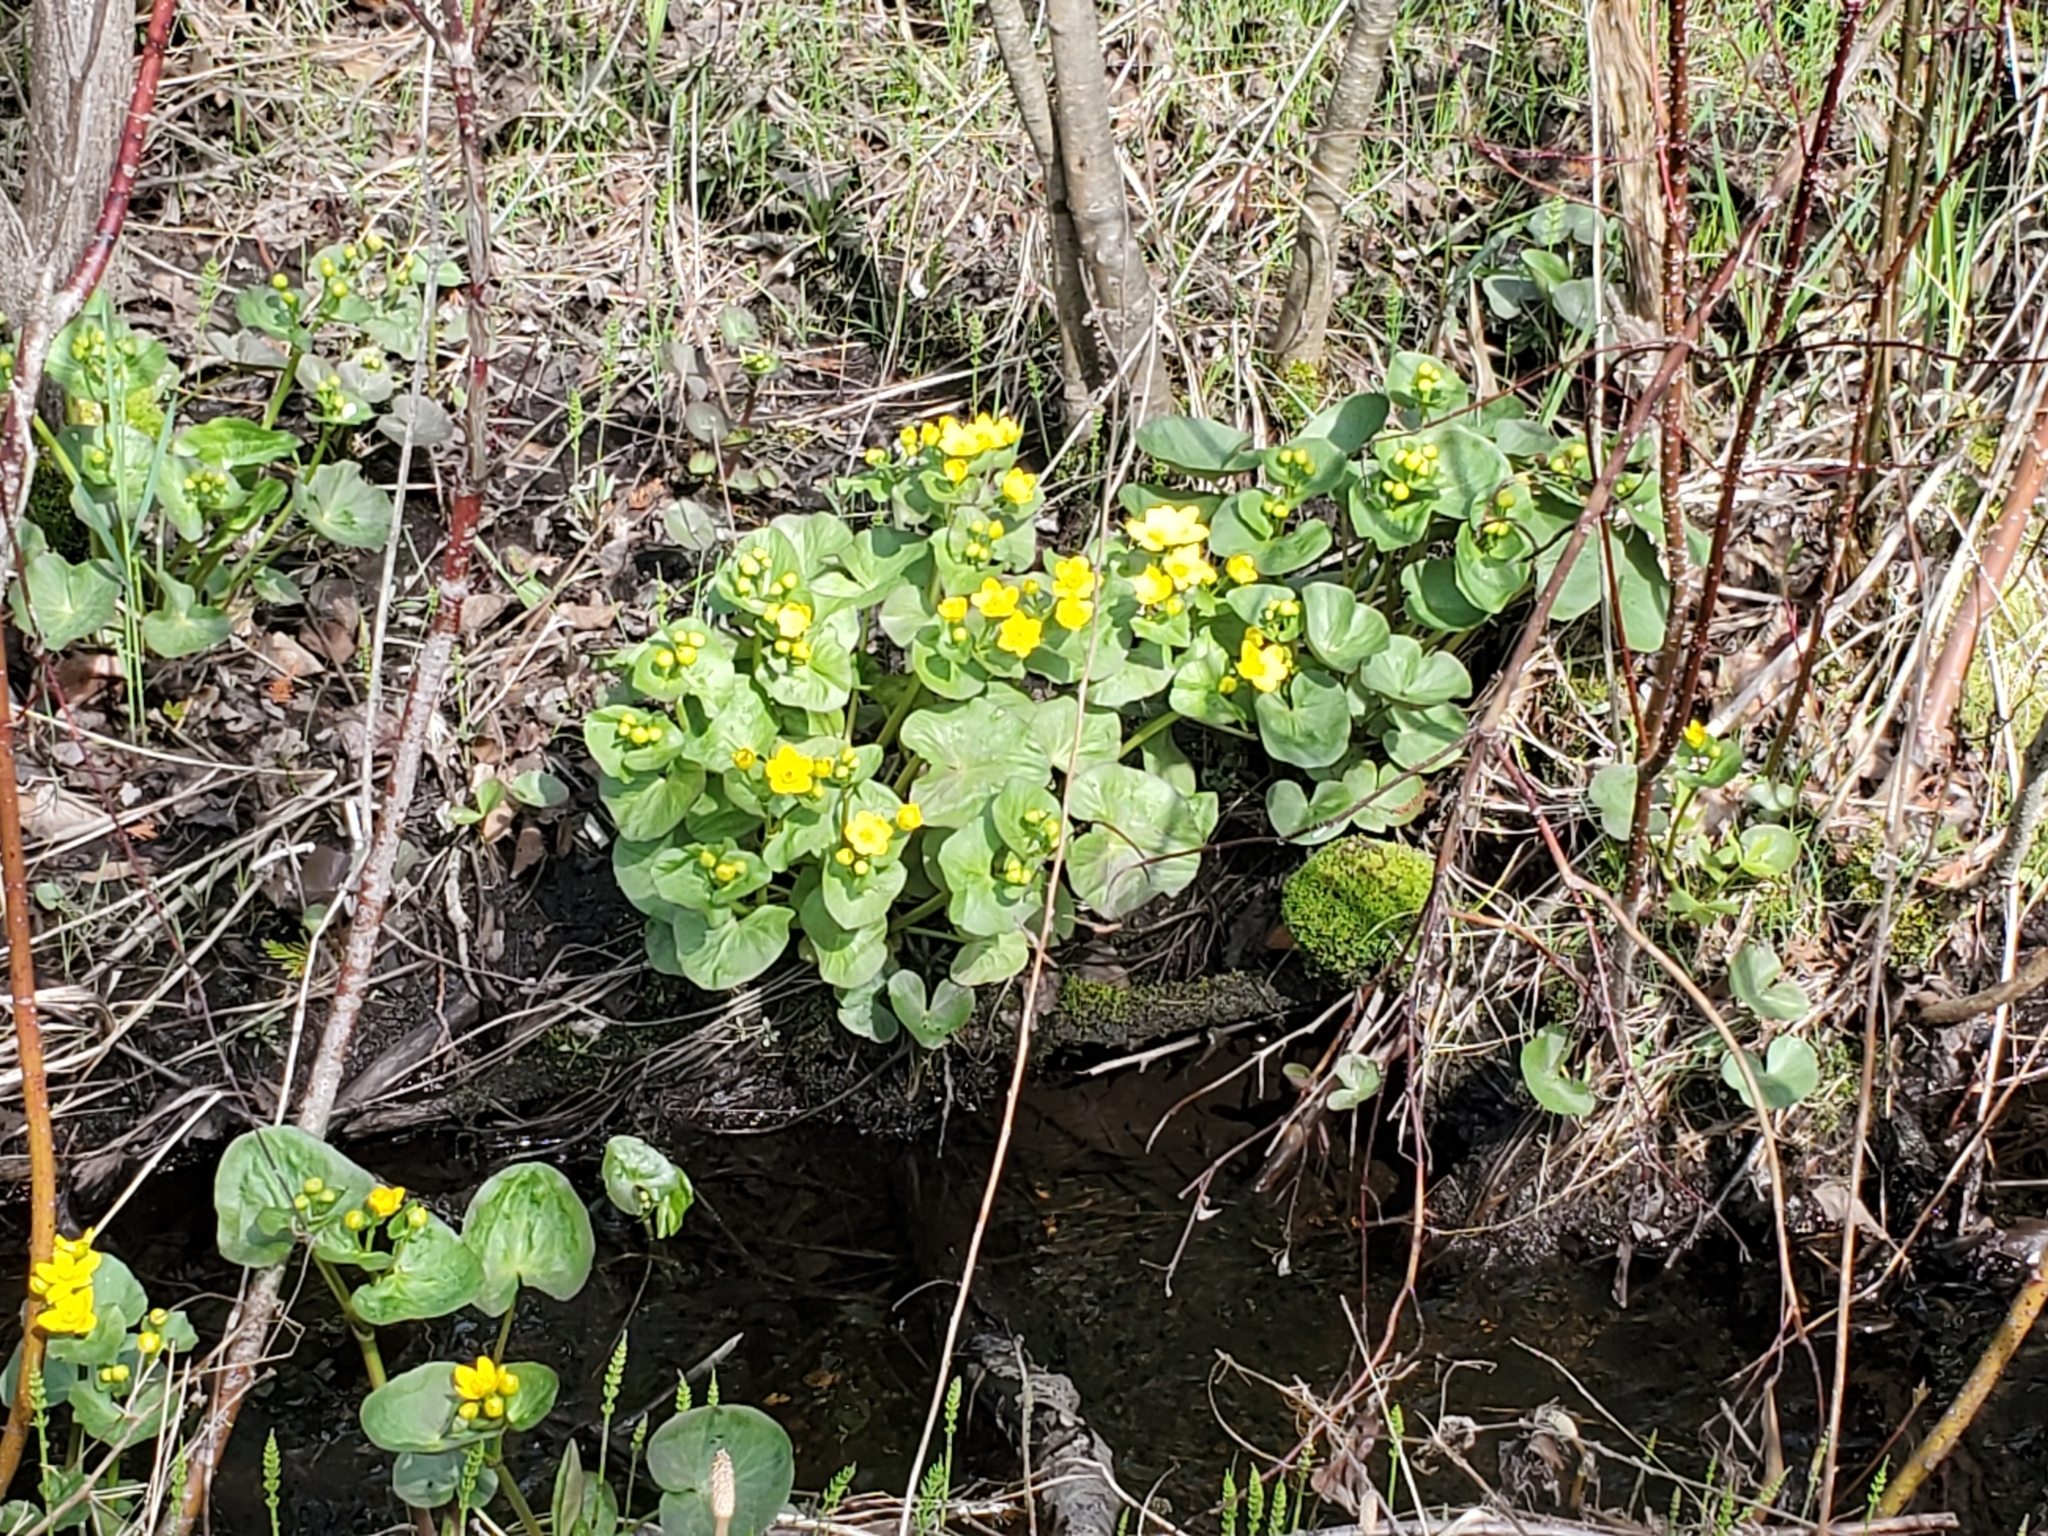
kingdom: Plantae
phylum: Tracheophyta
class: Magnoliopsida
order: Ranunculales
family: Ranunculaceae
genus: Caltha
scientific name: Caltha palustris
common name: Marsh marigold
